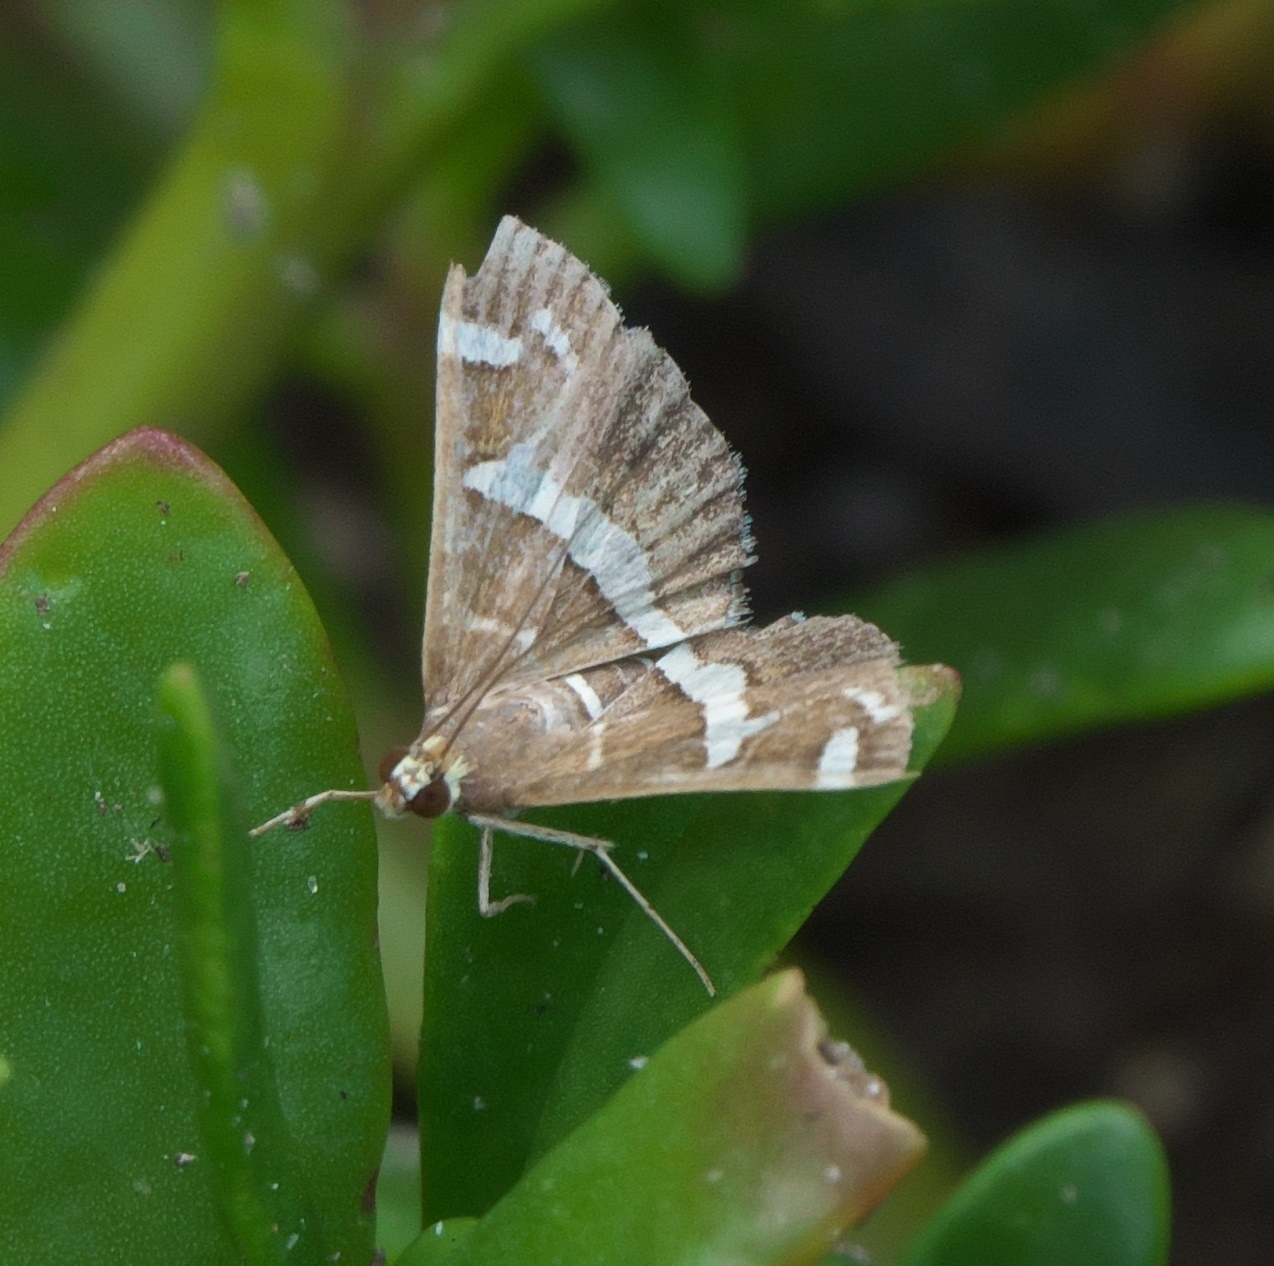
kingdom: Animalia
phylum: Arthropoda
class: Insecta
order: Lepidoptera
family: Crambidae
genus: Spoladea
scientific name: Spoladea recurvalis
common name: Beet webworm moth
